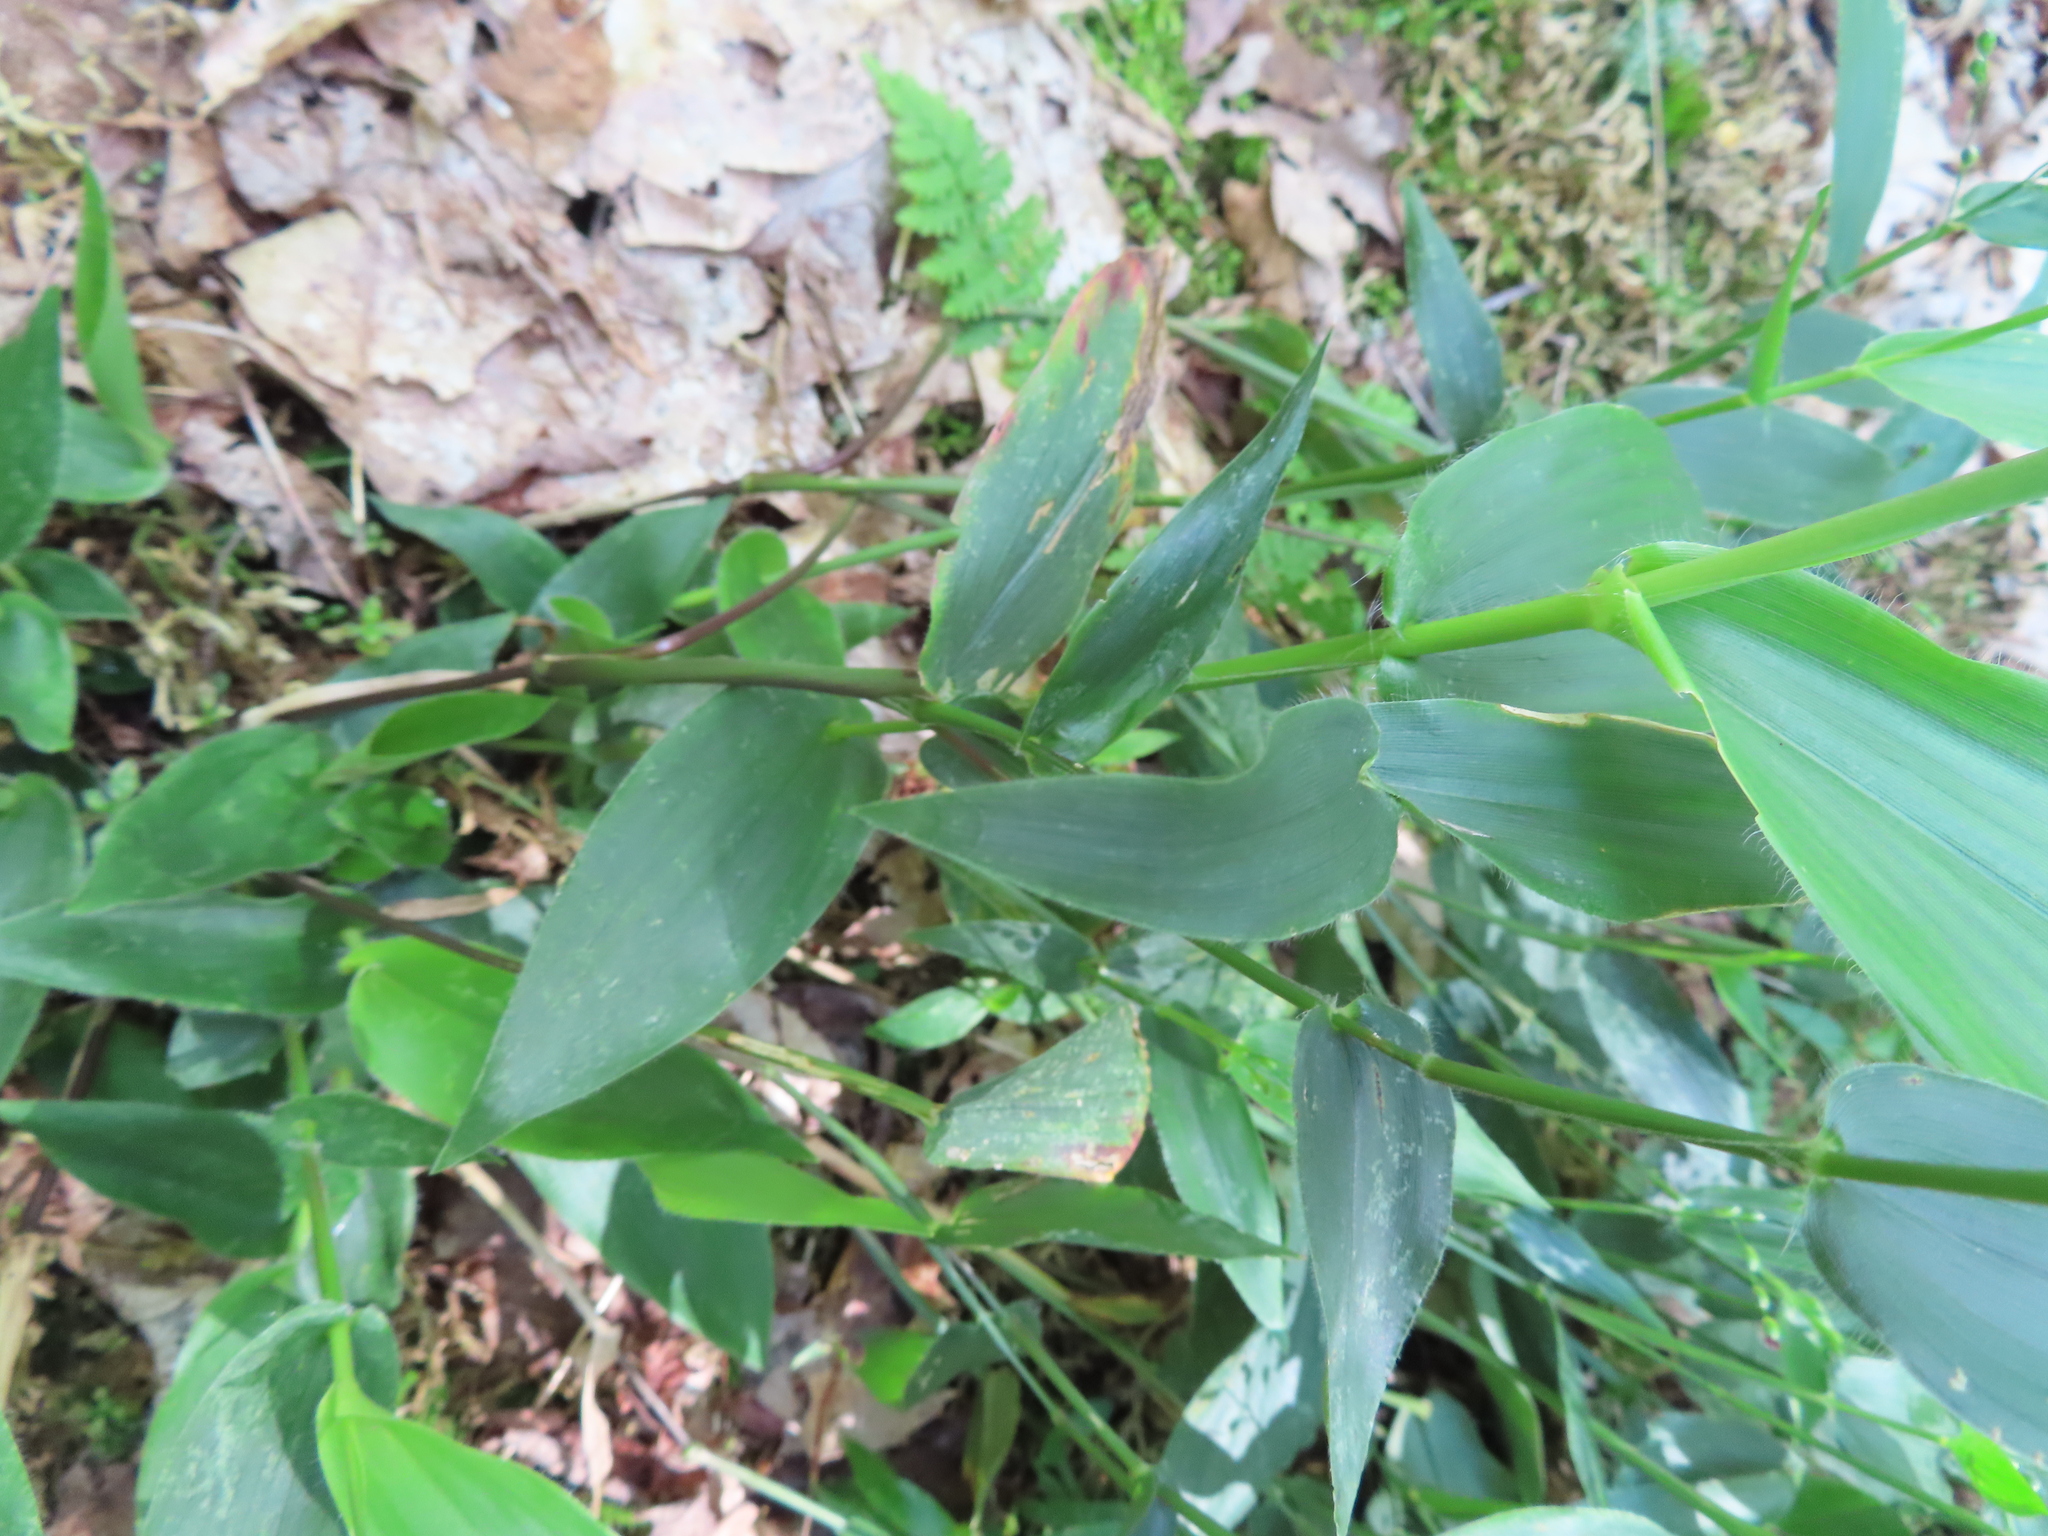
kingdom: Plantae
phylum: Tracheophyta
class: Liliopsida
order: Poales
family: Poaceae
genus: Dichanthelium
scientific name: Dichanthelium latifolium
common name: Broad-leaved panicgrass
